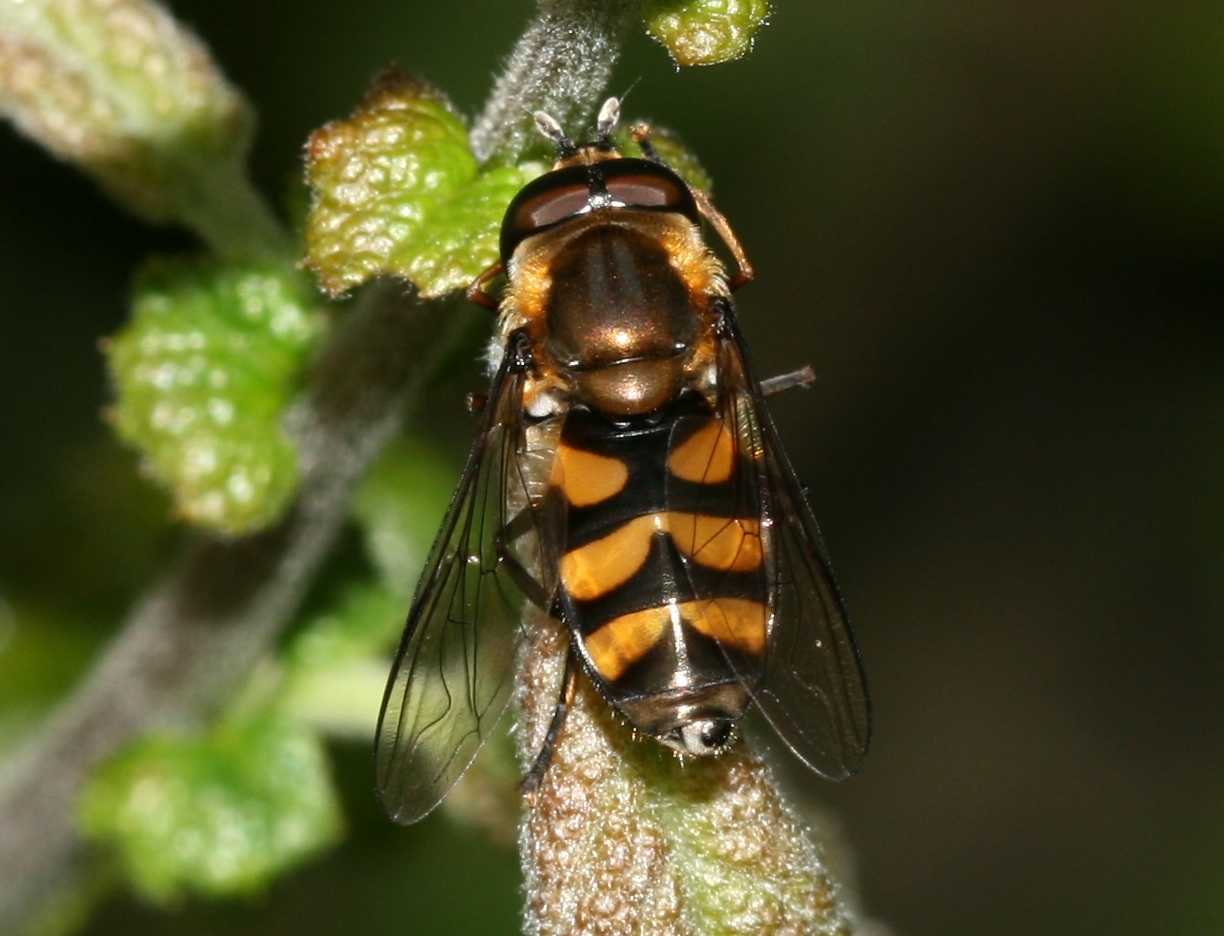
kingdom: Animalia
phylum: Arthropoda
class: Insecta
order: Diptera
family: Syrphidae
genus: Didea
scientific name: Didea fasciata
